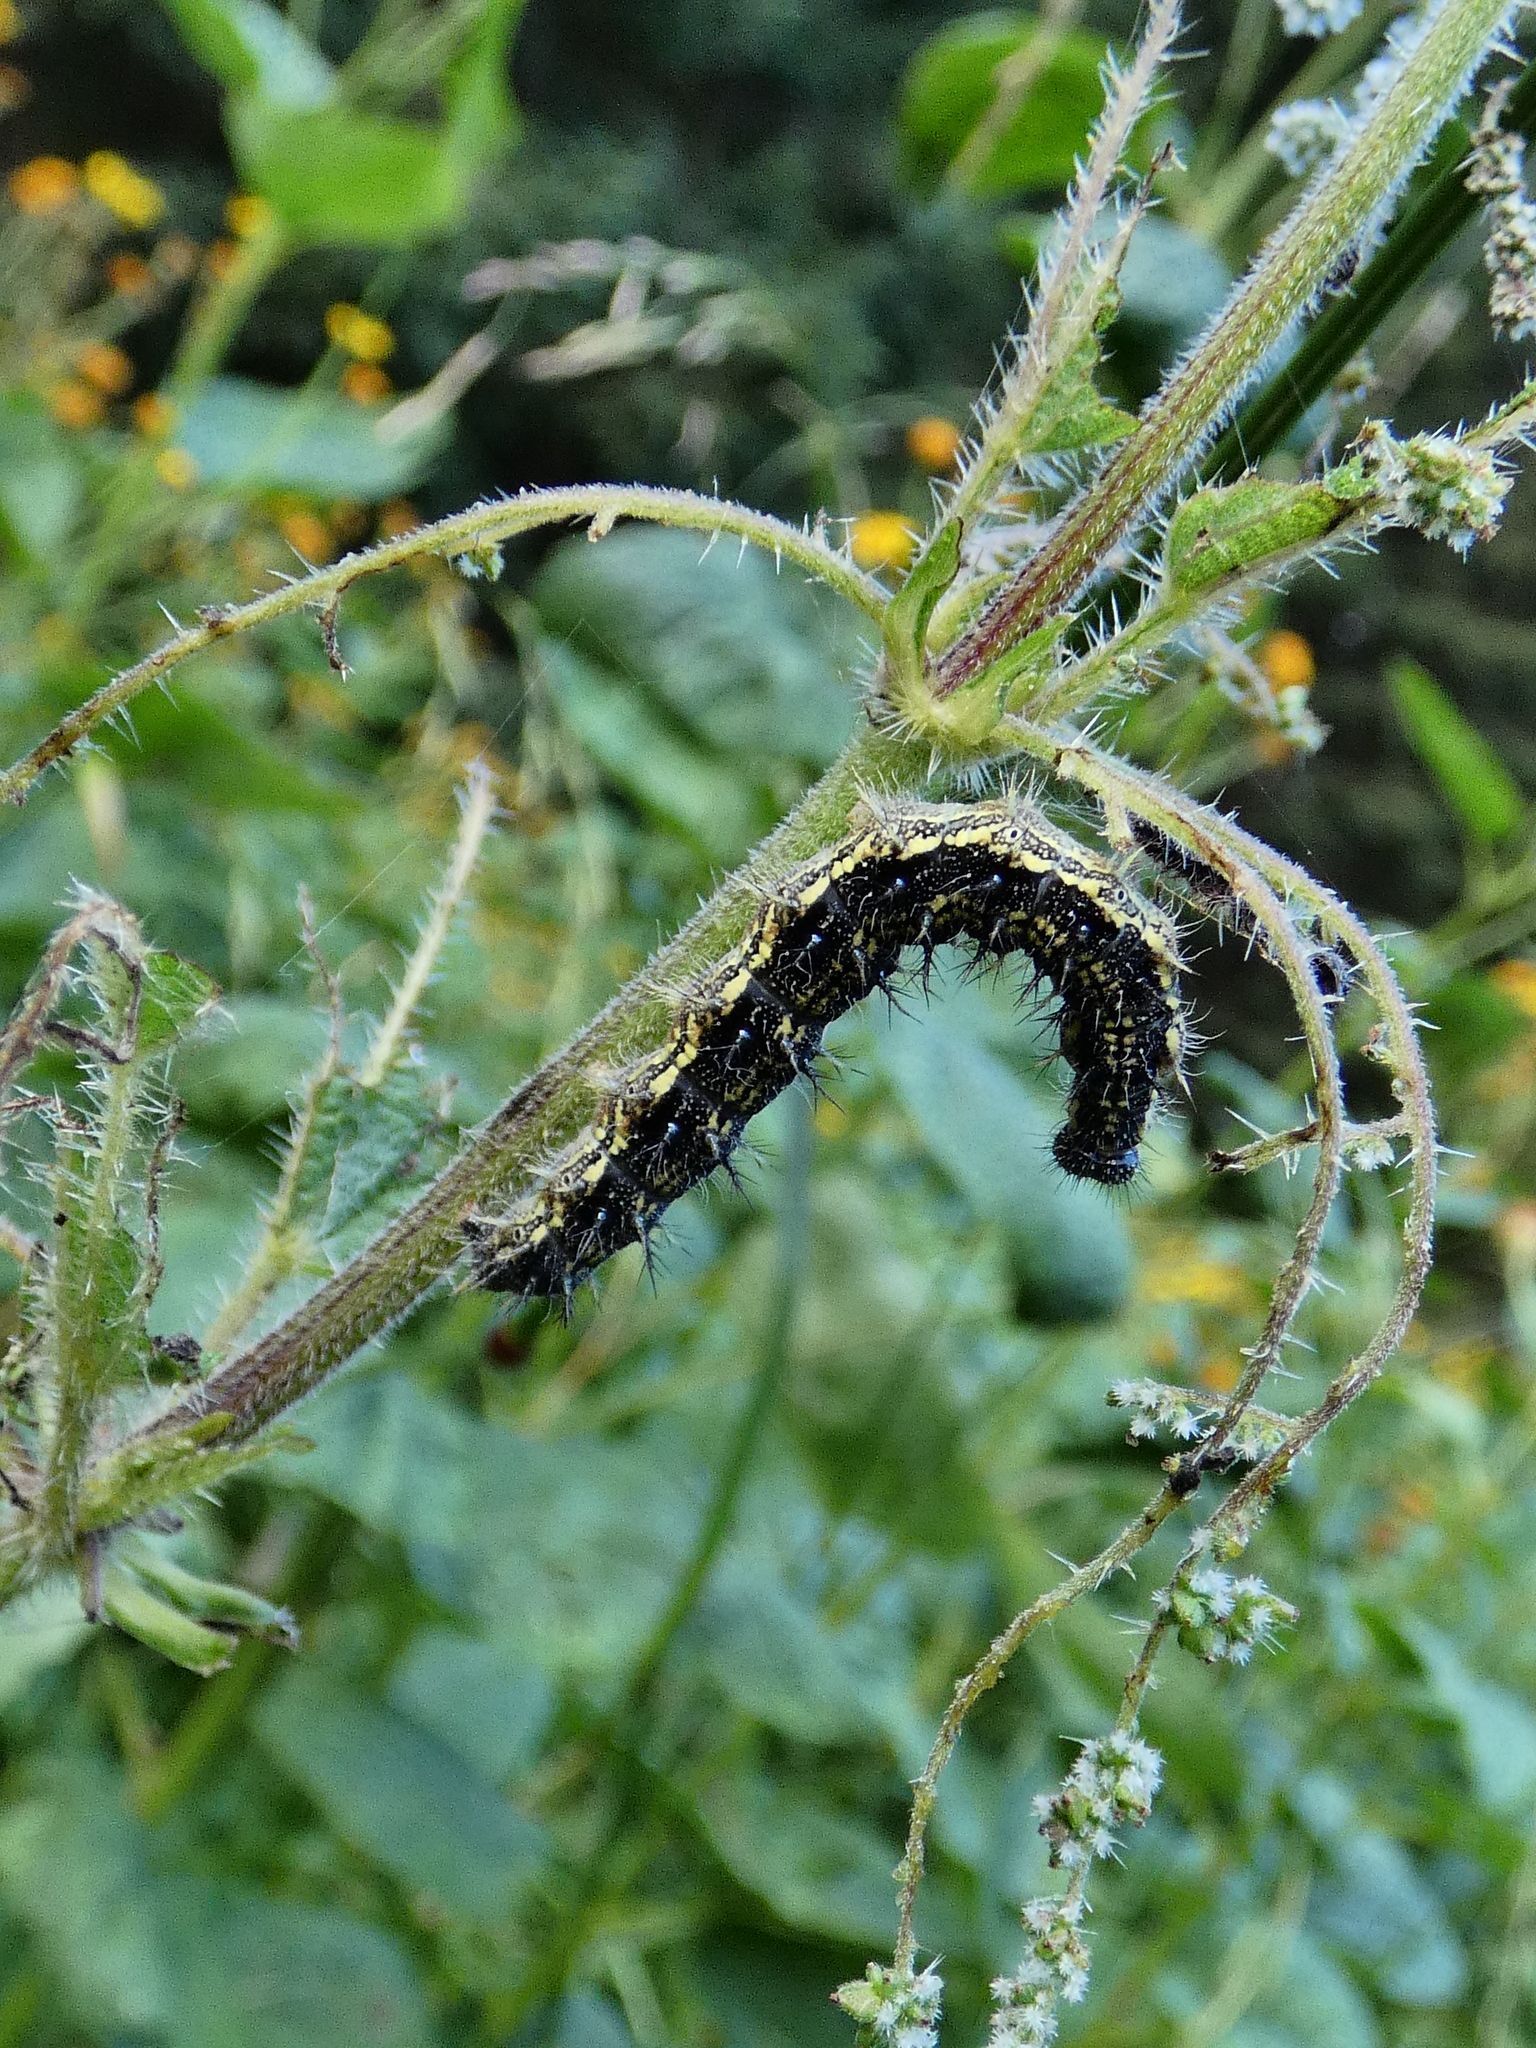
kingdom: Animalia
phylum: Arthropoda
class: Insecta
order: Lepidoptera
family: Nymphalidae
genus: Aglais
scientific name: Aglais urticae
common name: Small tortoiseshell
